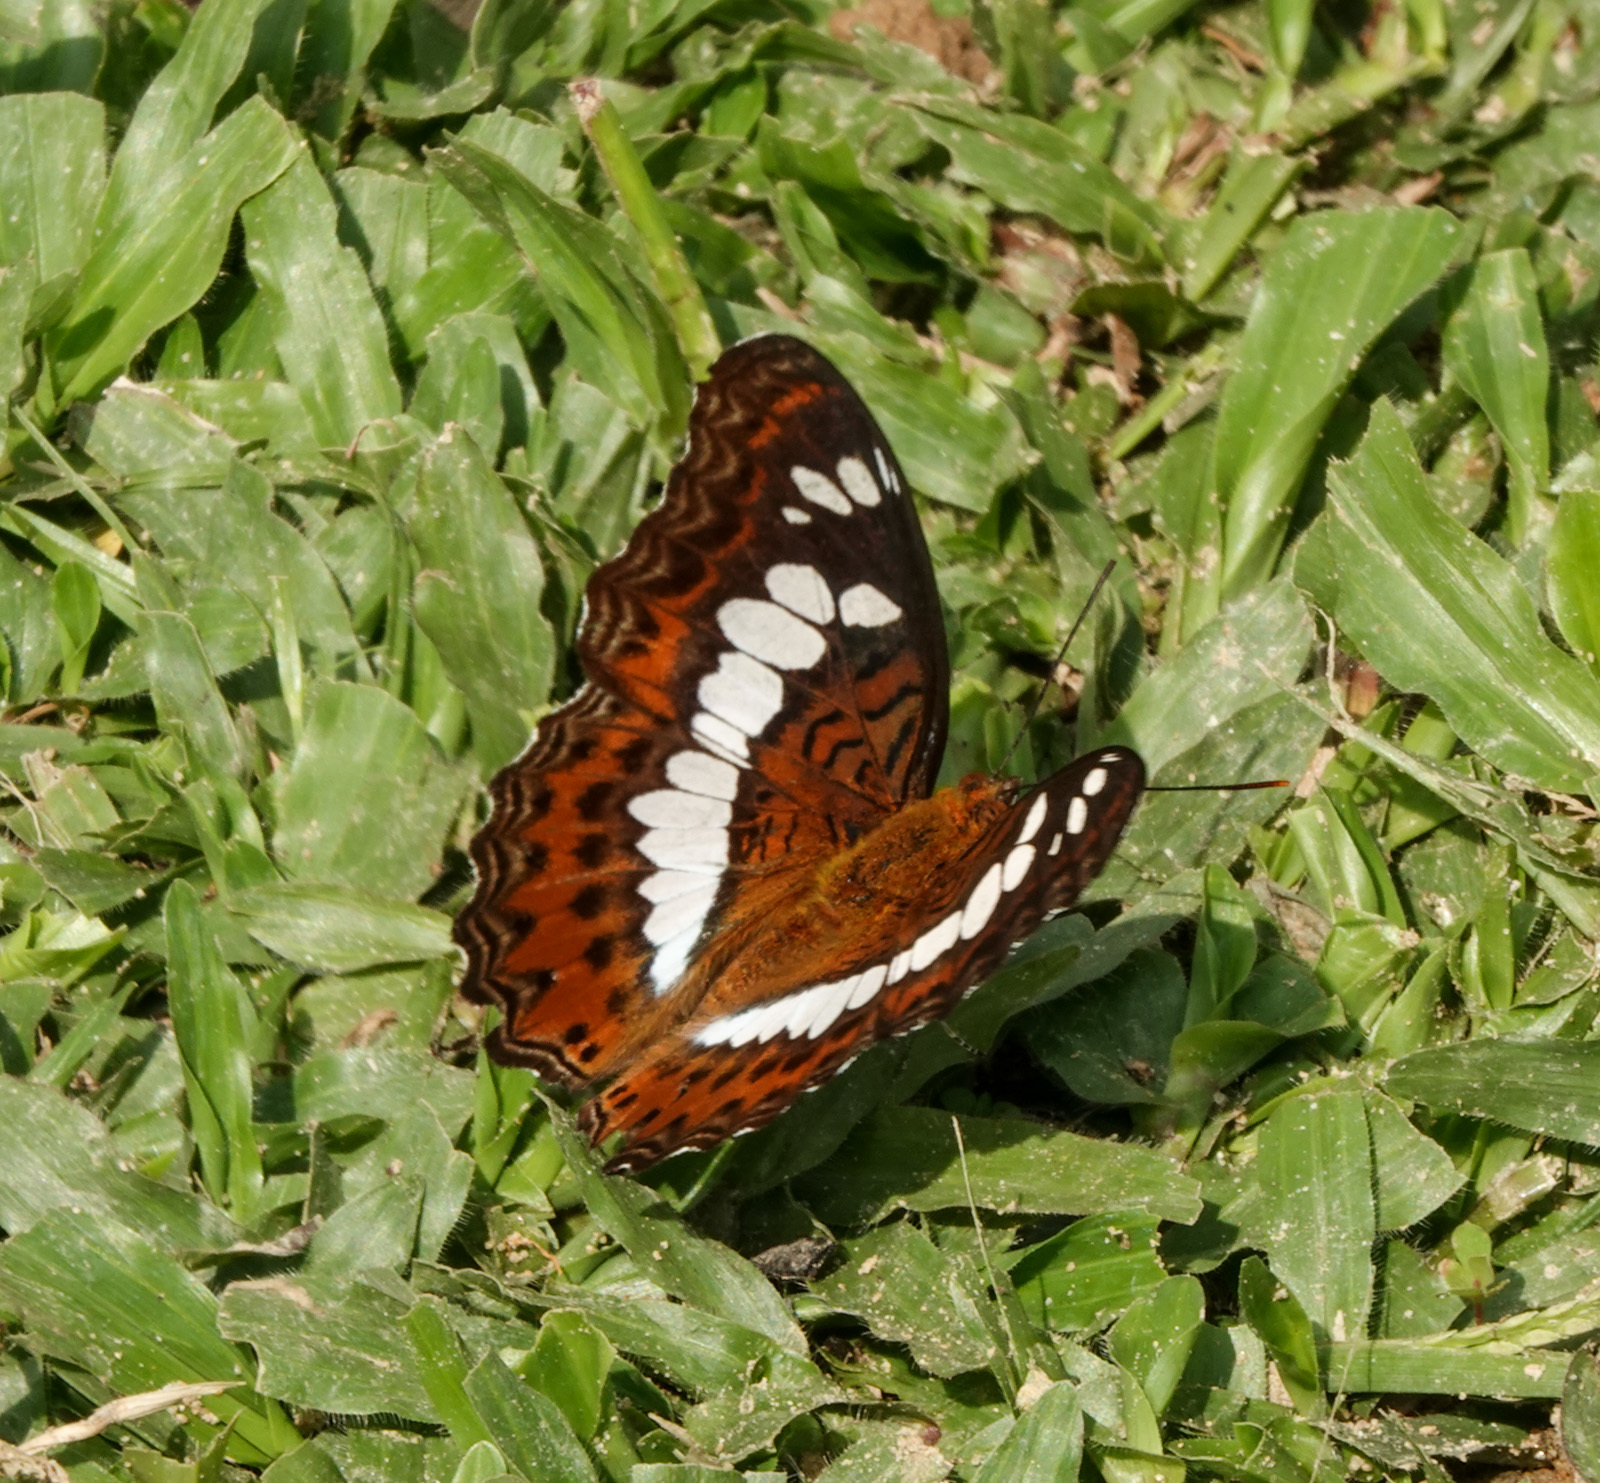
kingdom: Animalia
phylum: Arthropoda
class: Insecta
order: Lepidoptera
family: Nymphalidae
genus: Limenitis
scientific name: Limenitis Moduza procris
